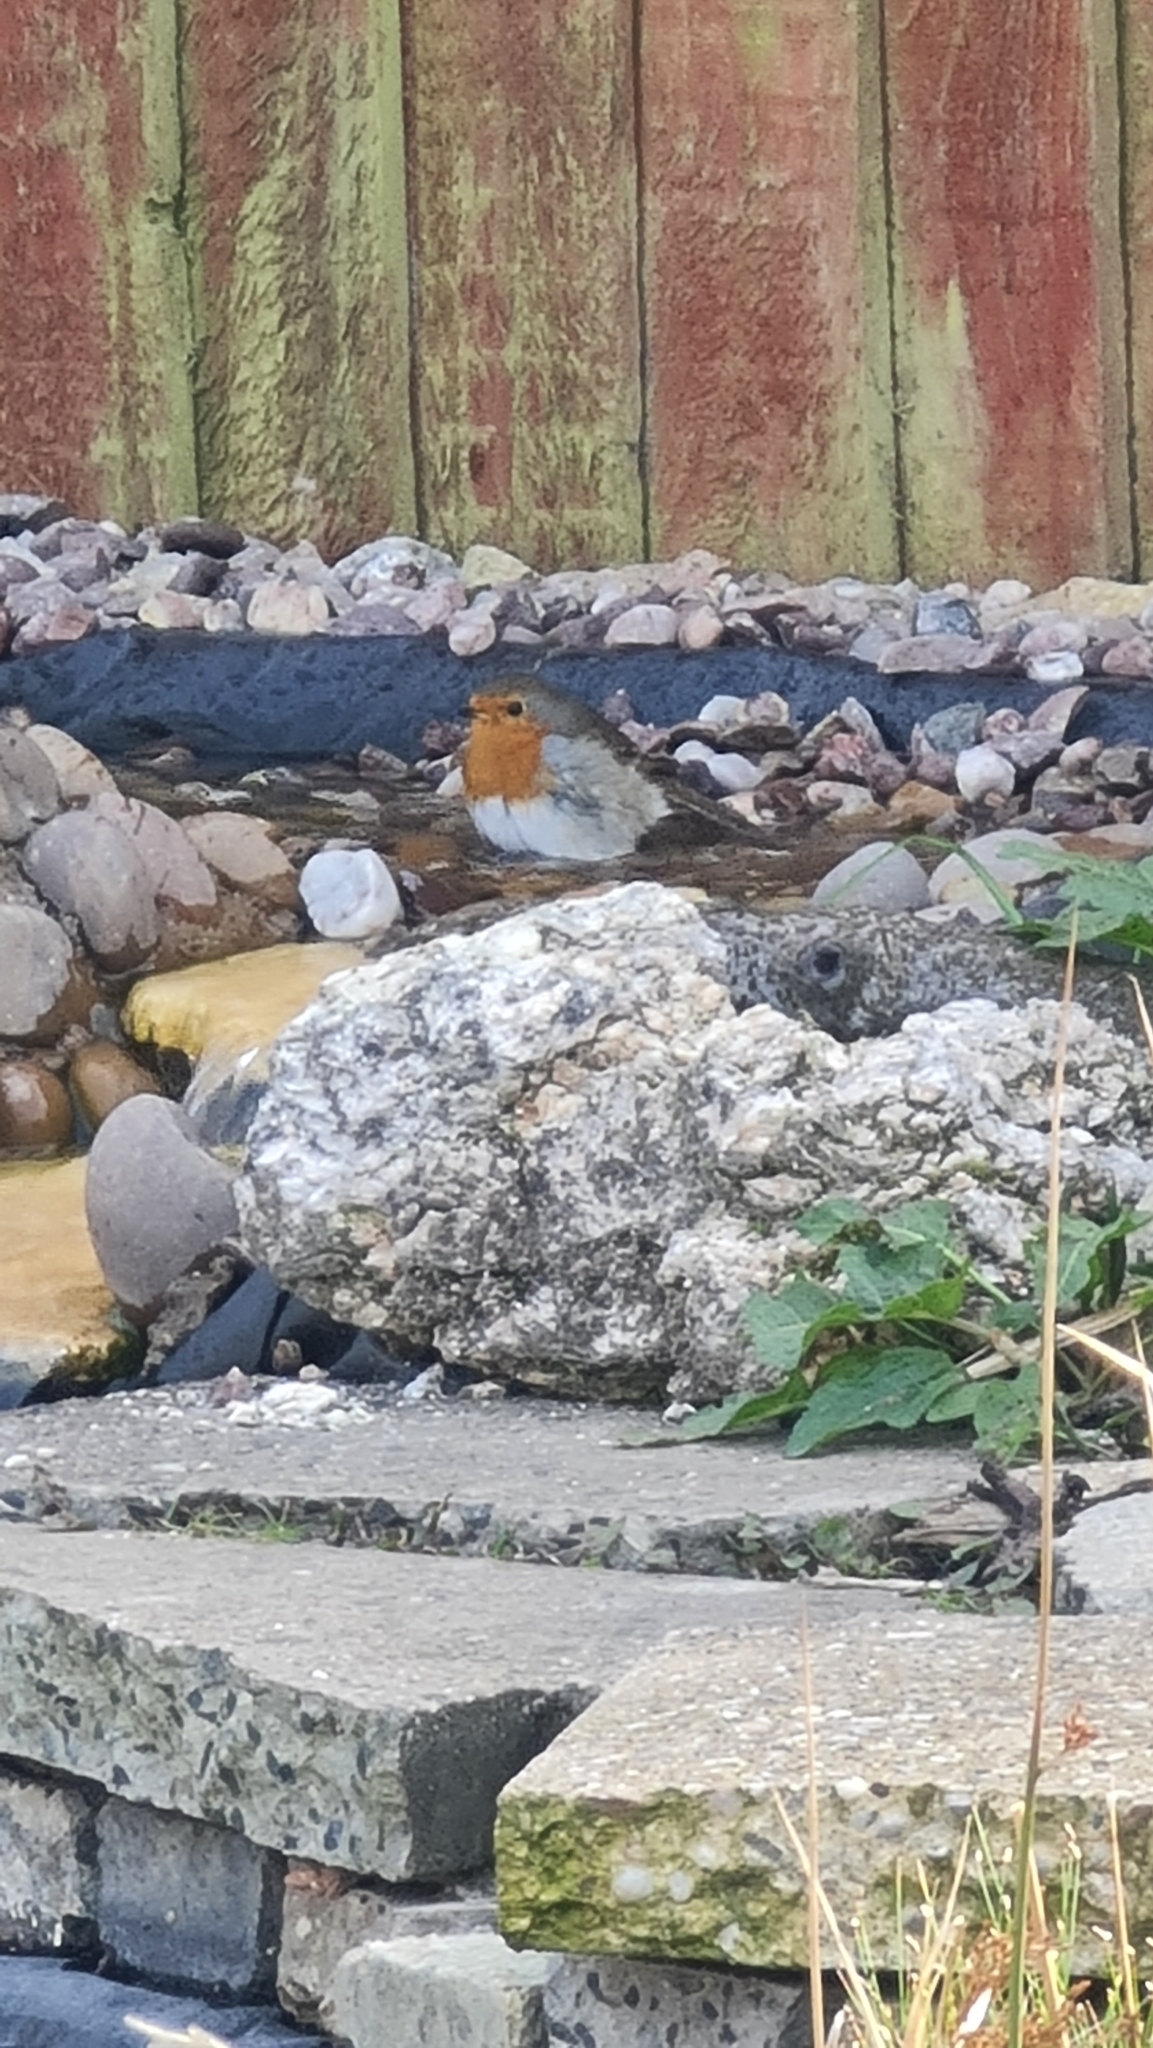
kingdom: Animalia
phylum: Chordata
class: Aves
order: Passeriformes
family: Muscicapidae
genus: Erithacus
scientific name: Erithacus rubecula
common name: European robin
